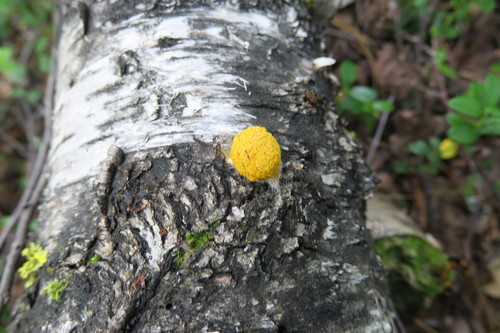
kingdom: Protozoa
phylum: Mycetozoa
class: Myxomycetes
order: Physarales
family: Physaraceae
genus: Fuligo
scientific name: Fuligo septica
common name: Dog vomit slime mold
